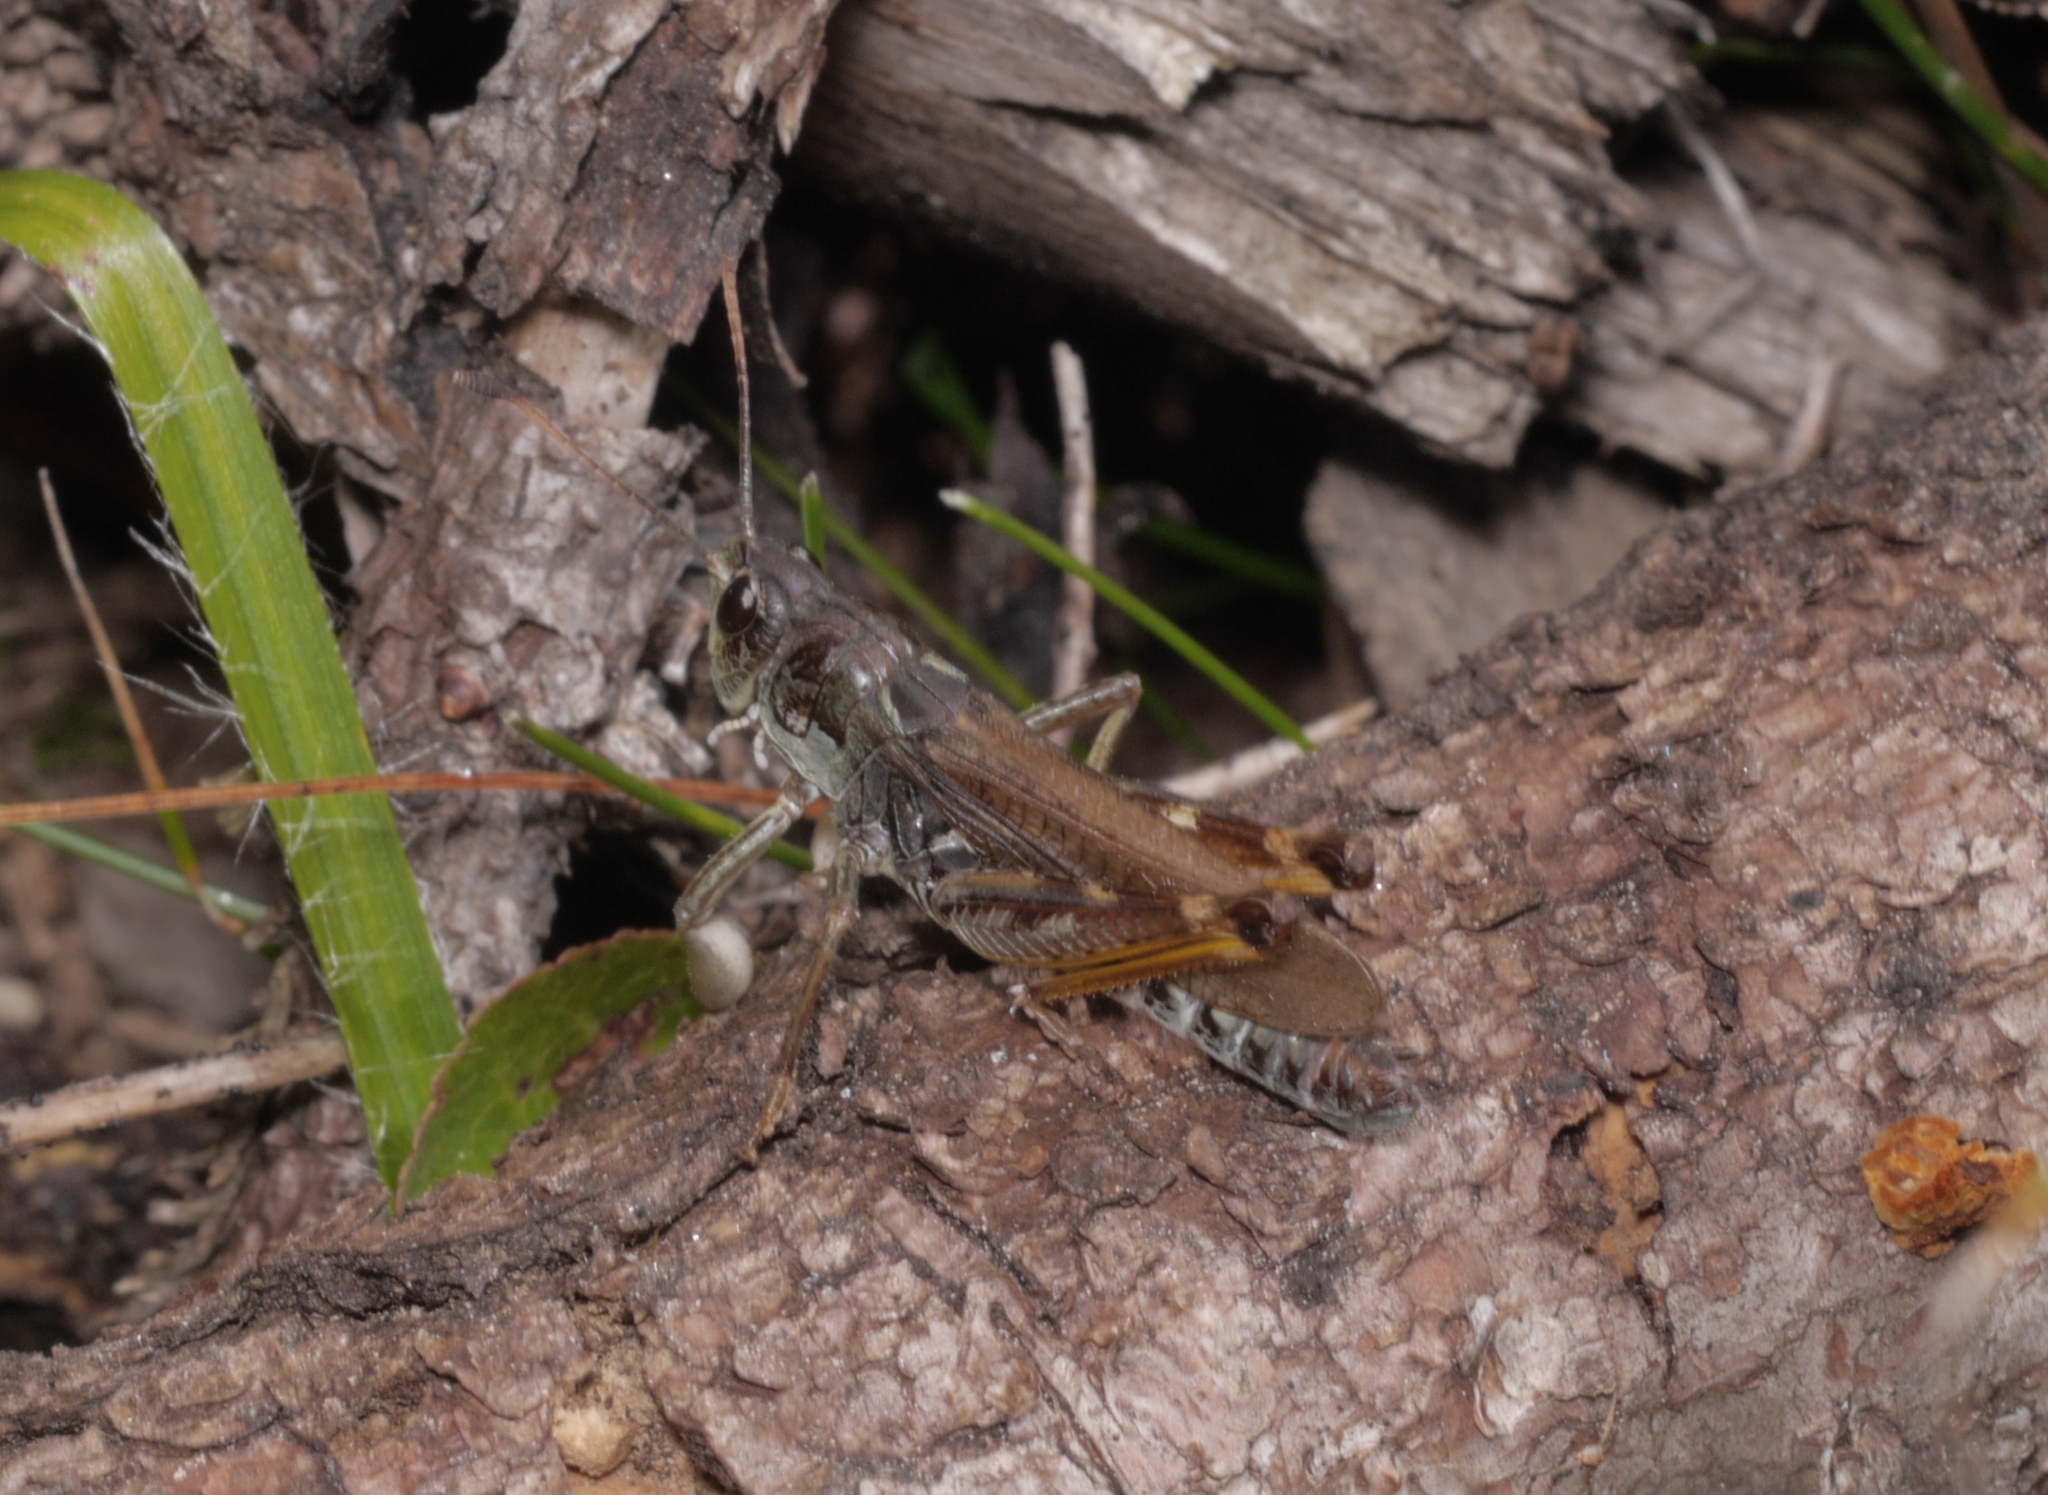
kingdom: Animalia
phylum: Arthropoda
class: Insecta
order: Orthoptera
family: Acrididae
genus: Gomphocerus
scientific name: Gomphocerus sibiricus
